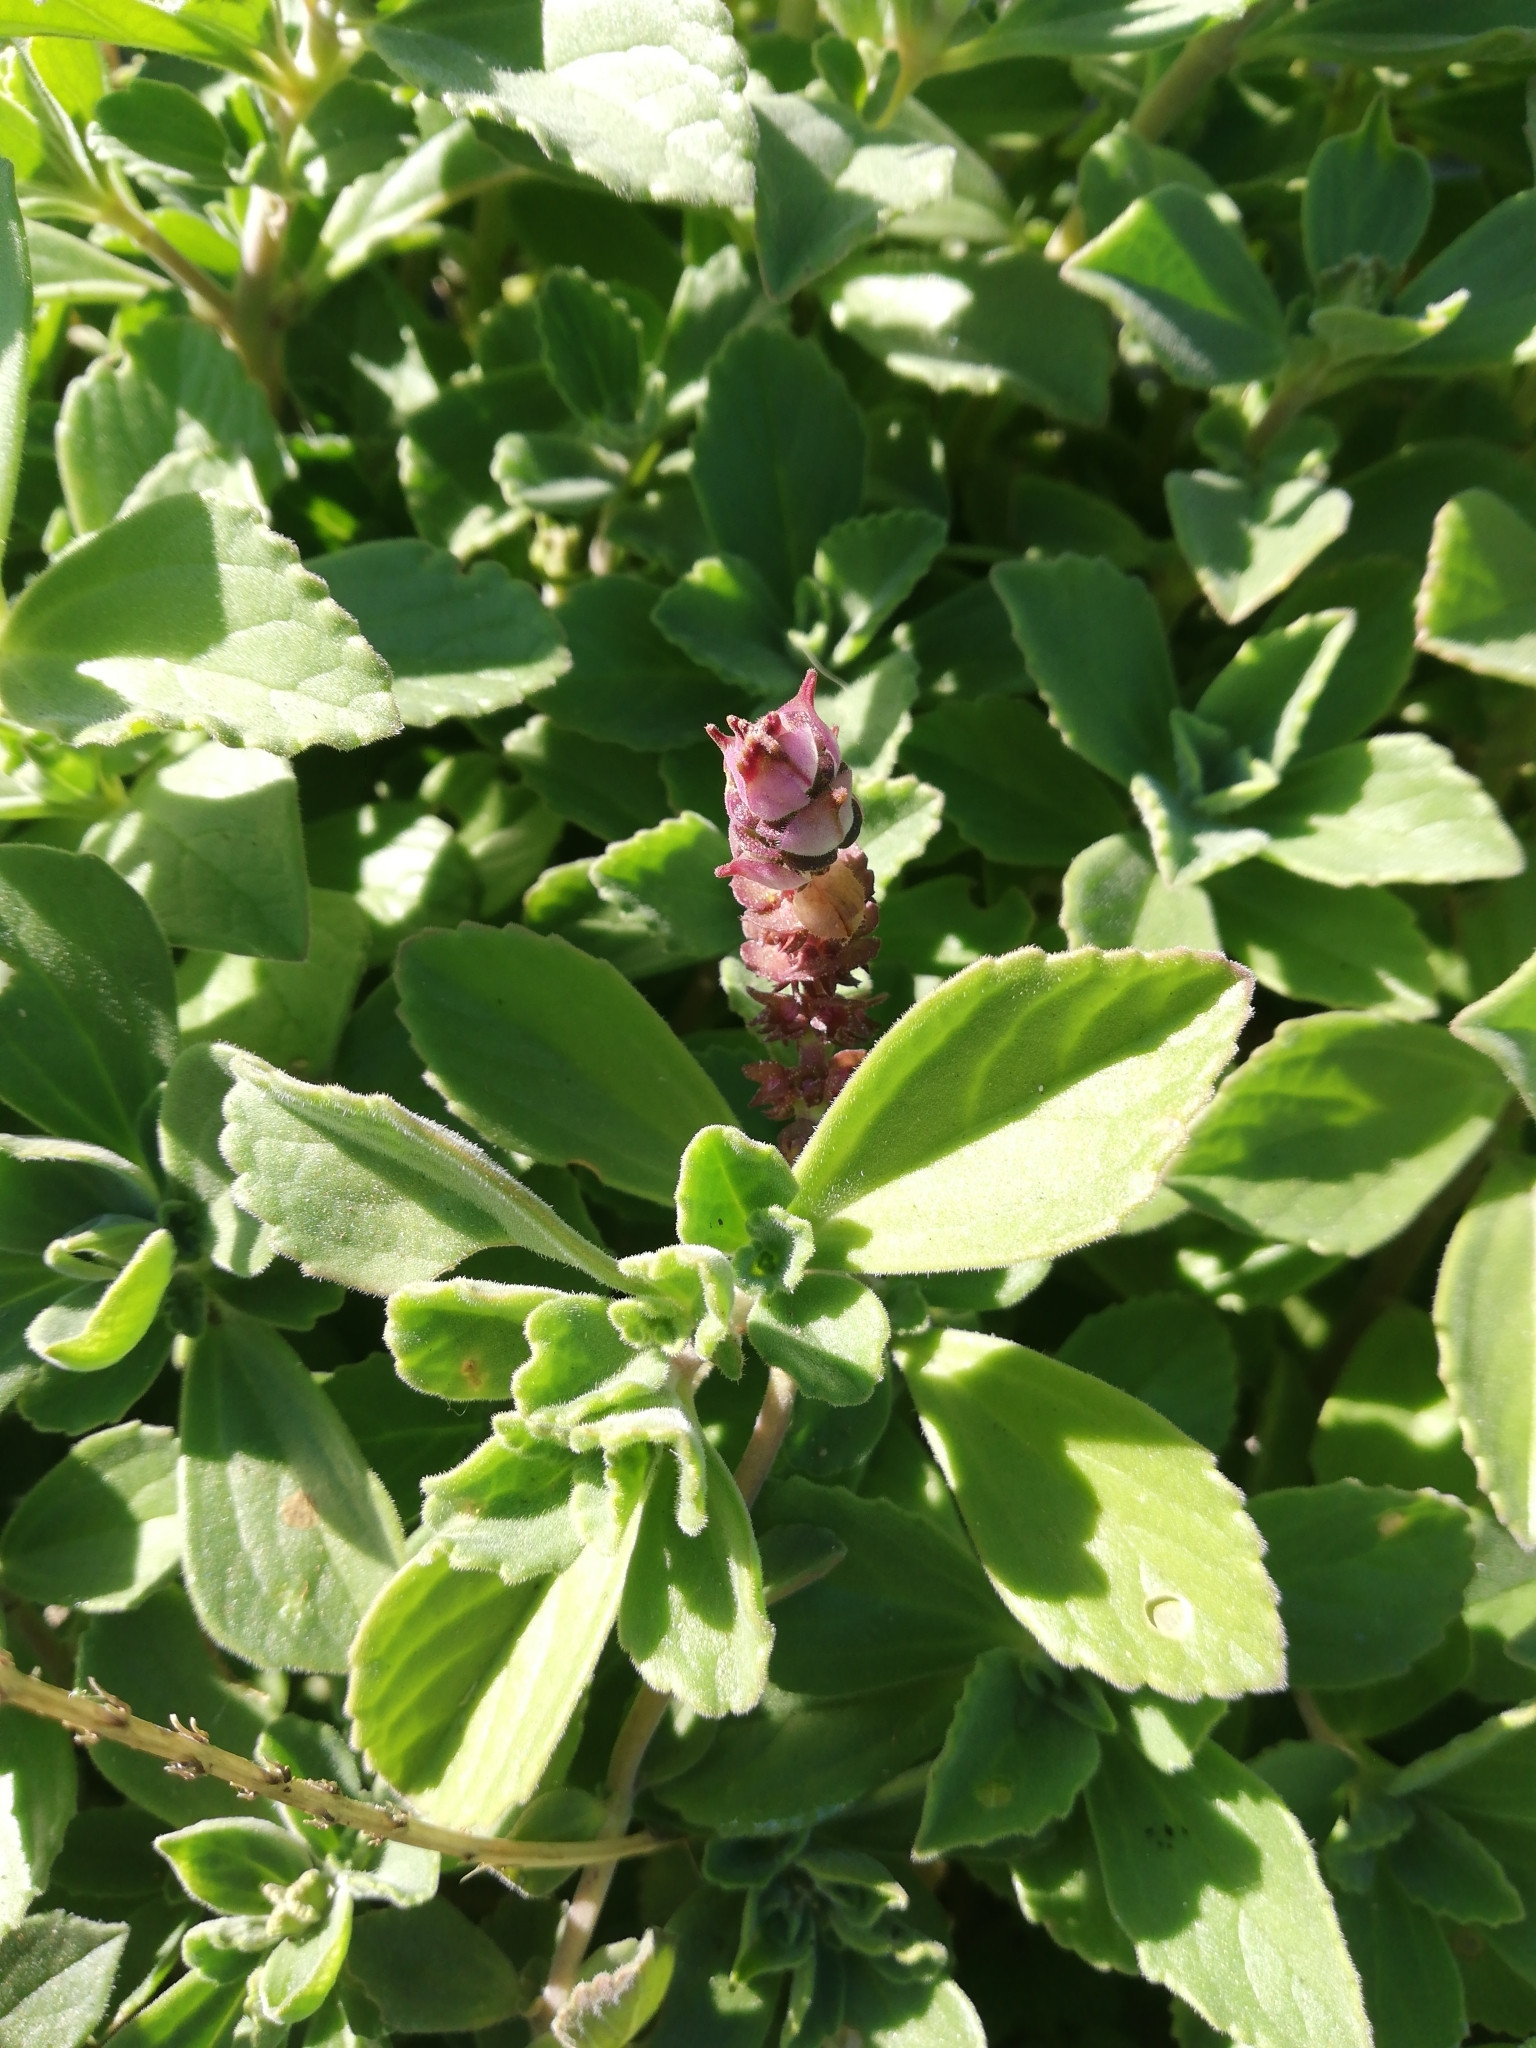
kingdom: Plantae
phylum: Tracheophyta
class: Magnoliopsida
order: Lamiales
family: Lamiaceae
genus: Coleus
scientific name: Coleus neochilus
